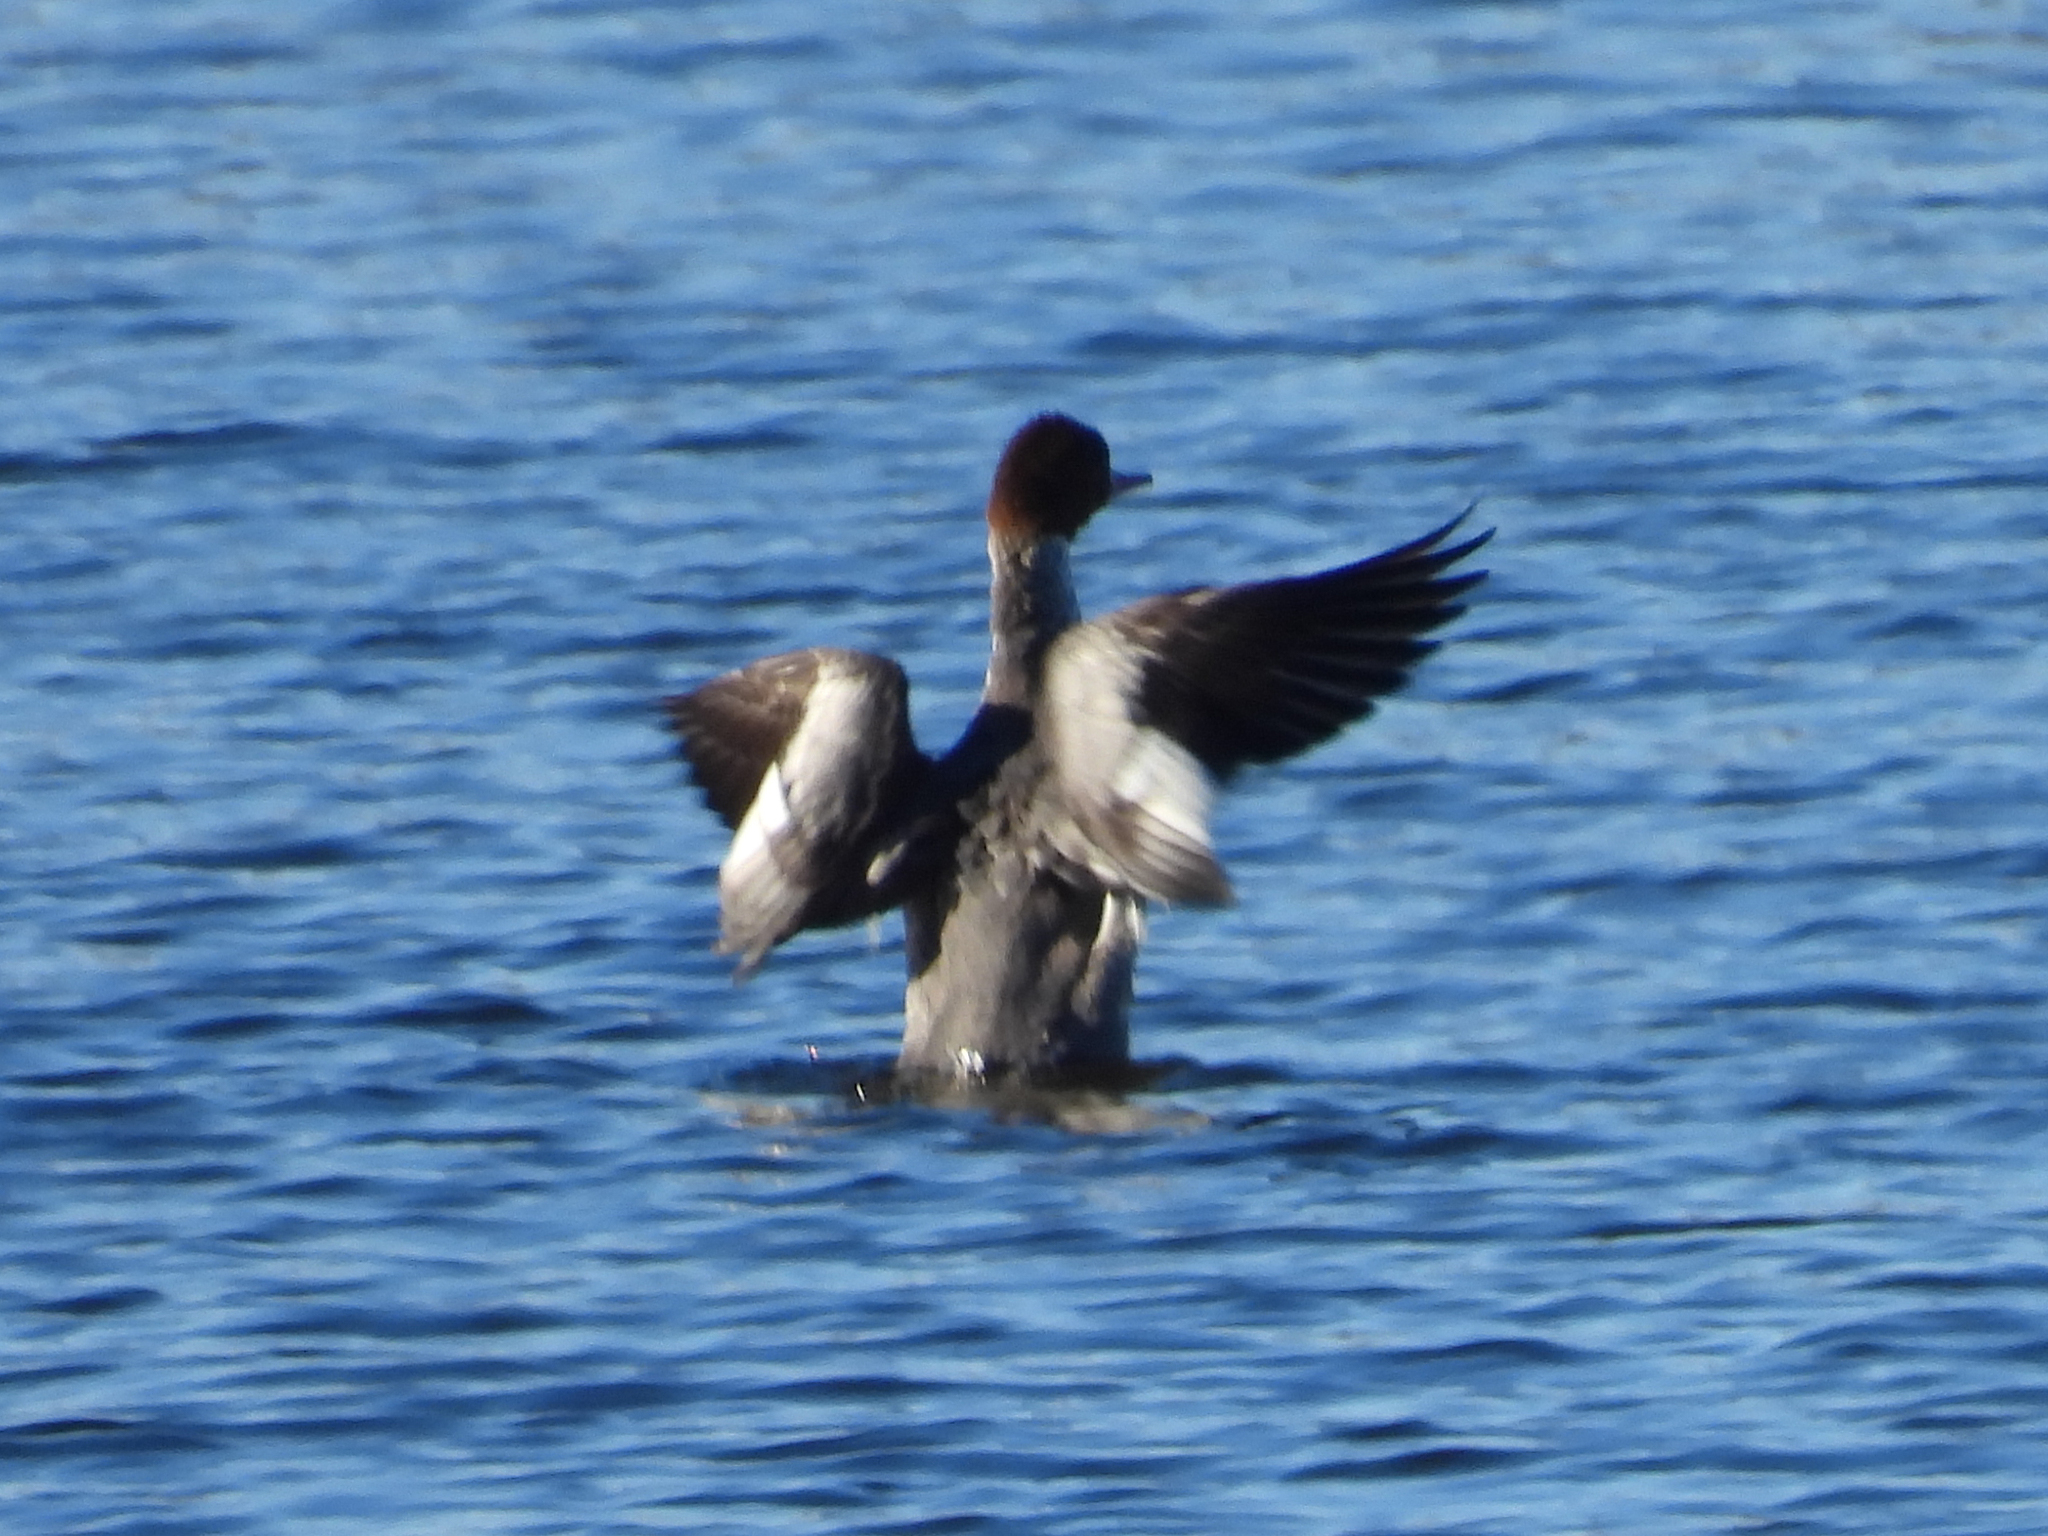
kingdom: Animalia
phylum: Chordata
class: Aves
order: Anseriformes
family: Anatidae
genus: Mergus
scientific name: Mergus merganser
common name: Common merganser
